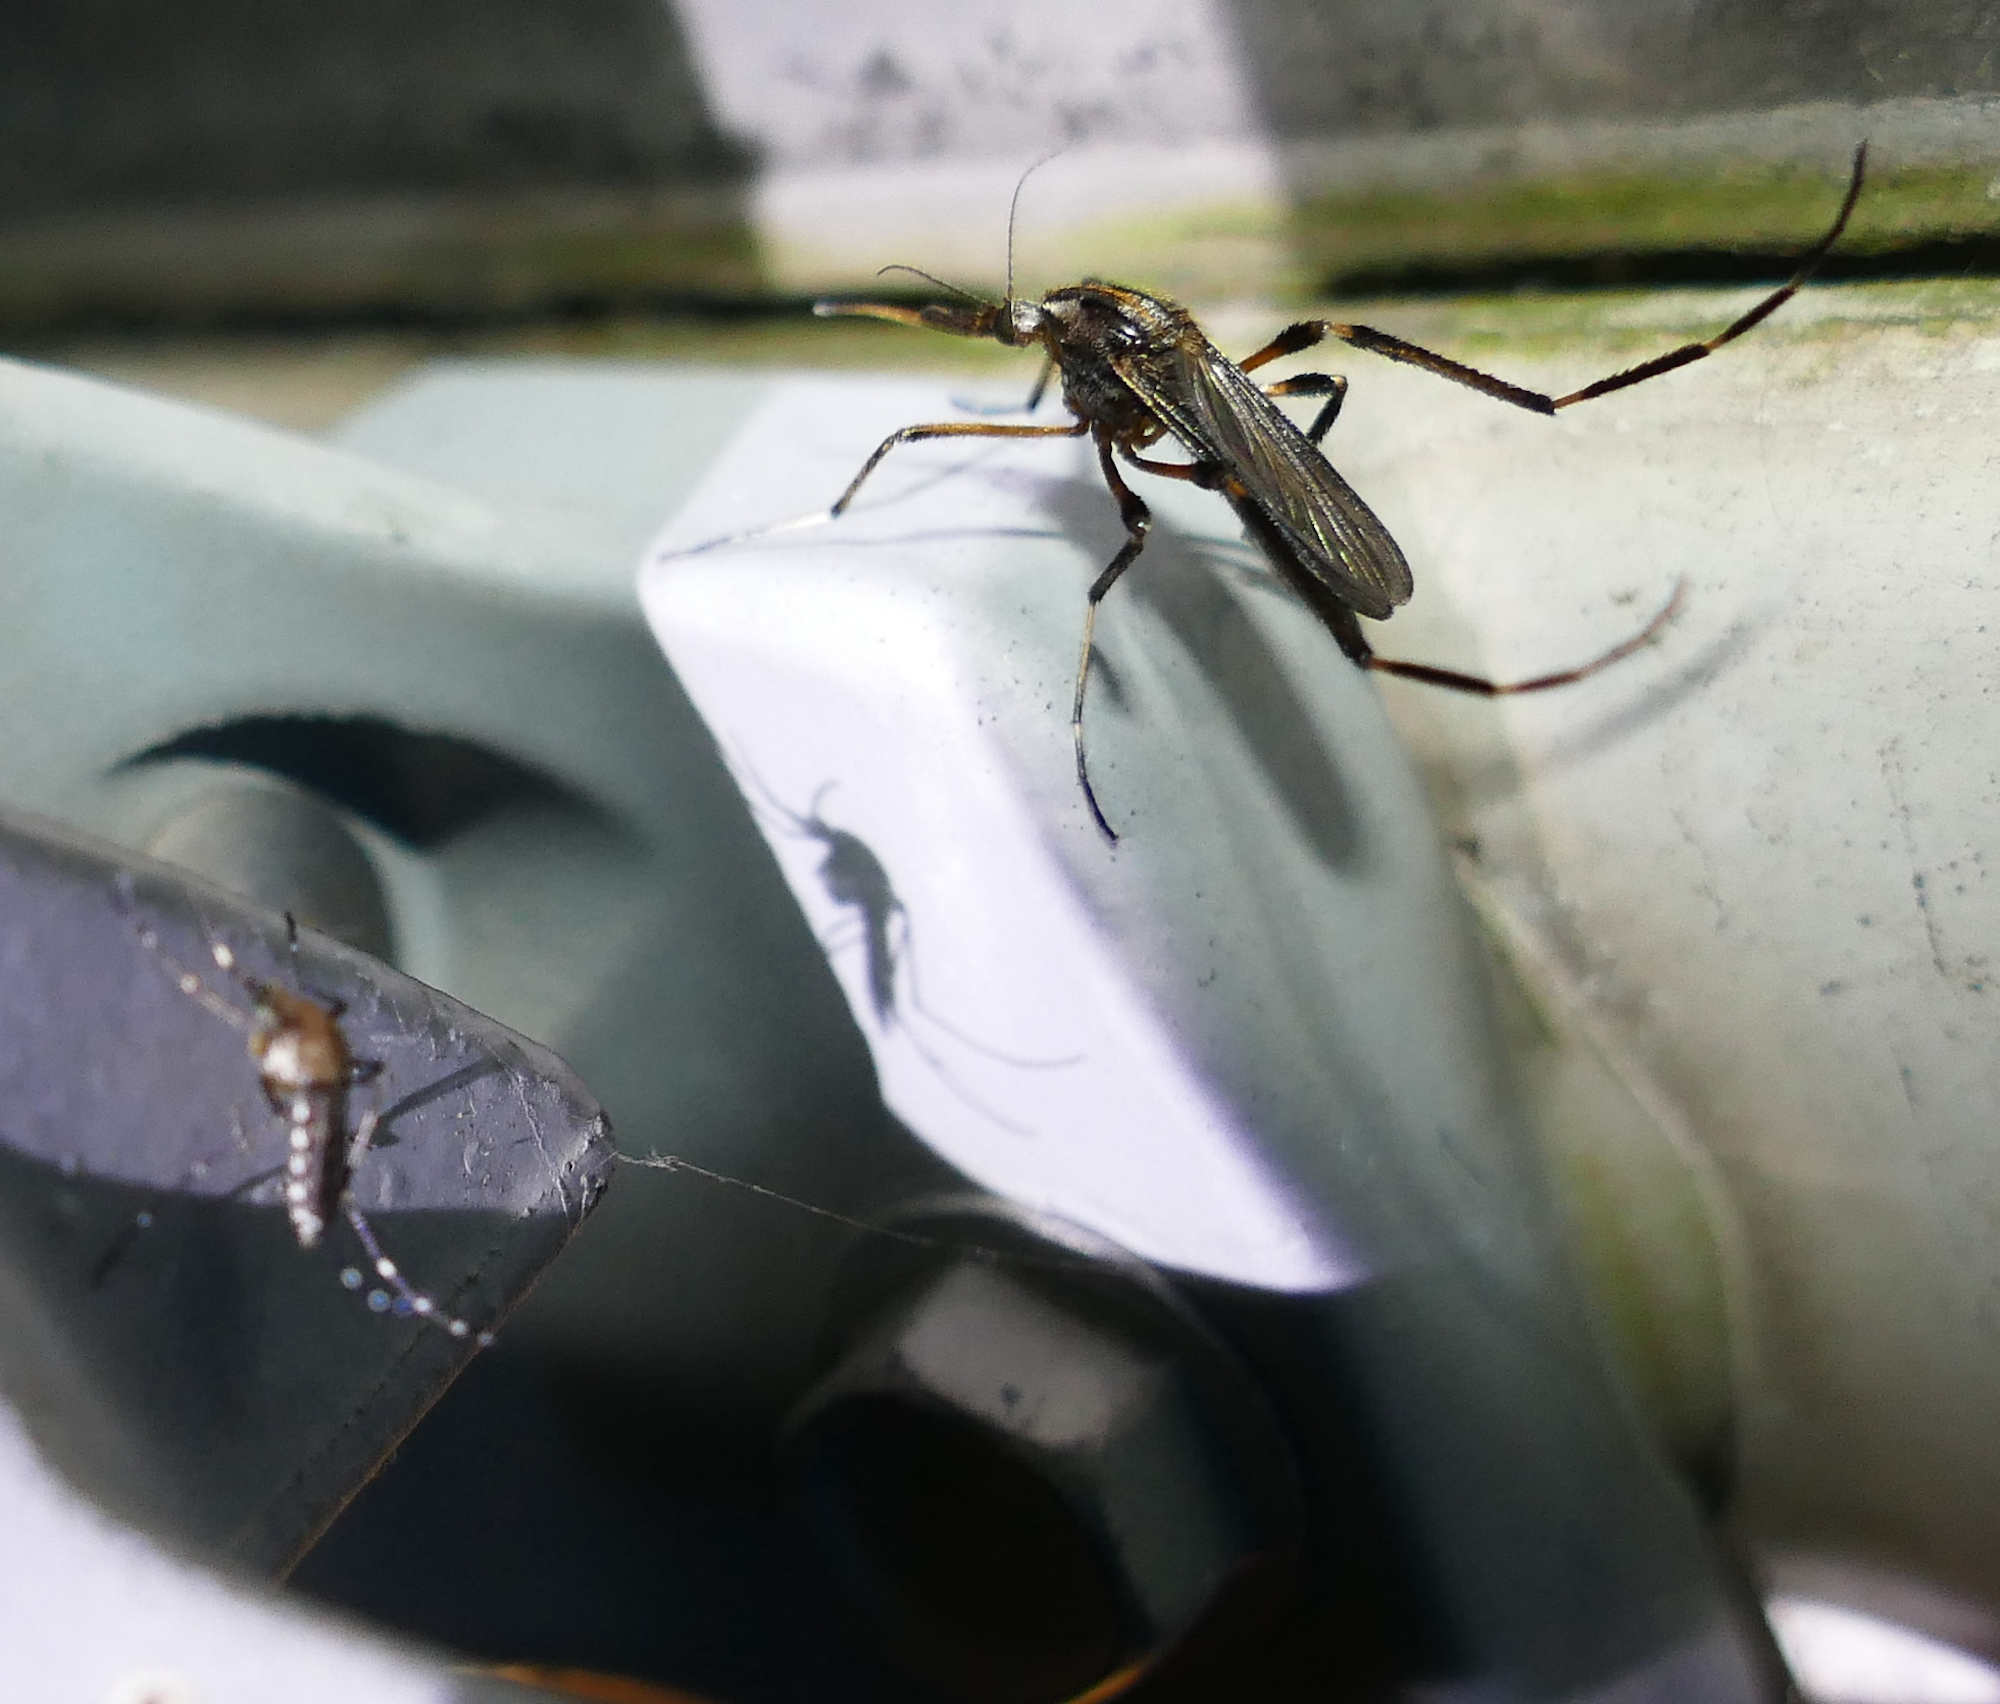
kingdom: Animalia
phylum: Arthropoda
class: Insecta
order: Diptera
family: Culicidae
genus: Psorophora
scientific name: Psorophora ciliata
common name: Gallinipper
